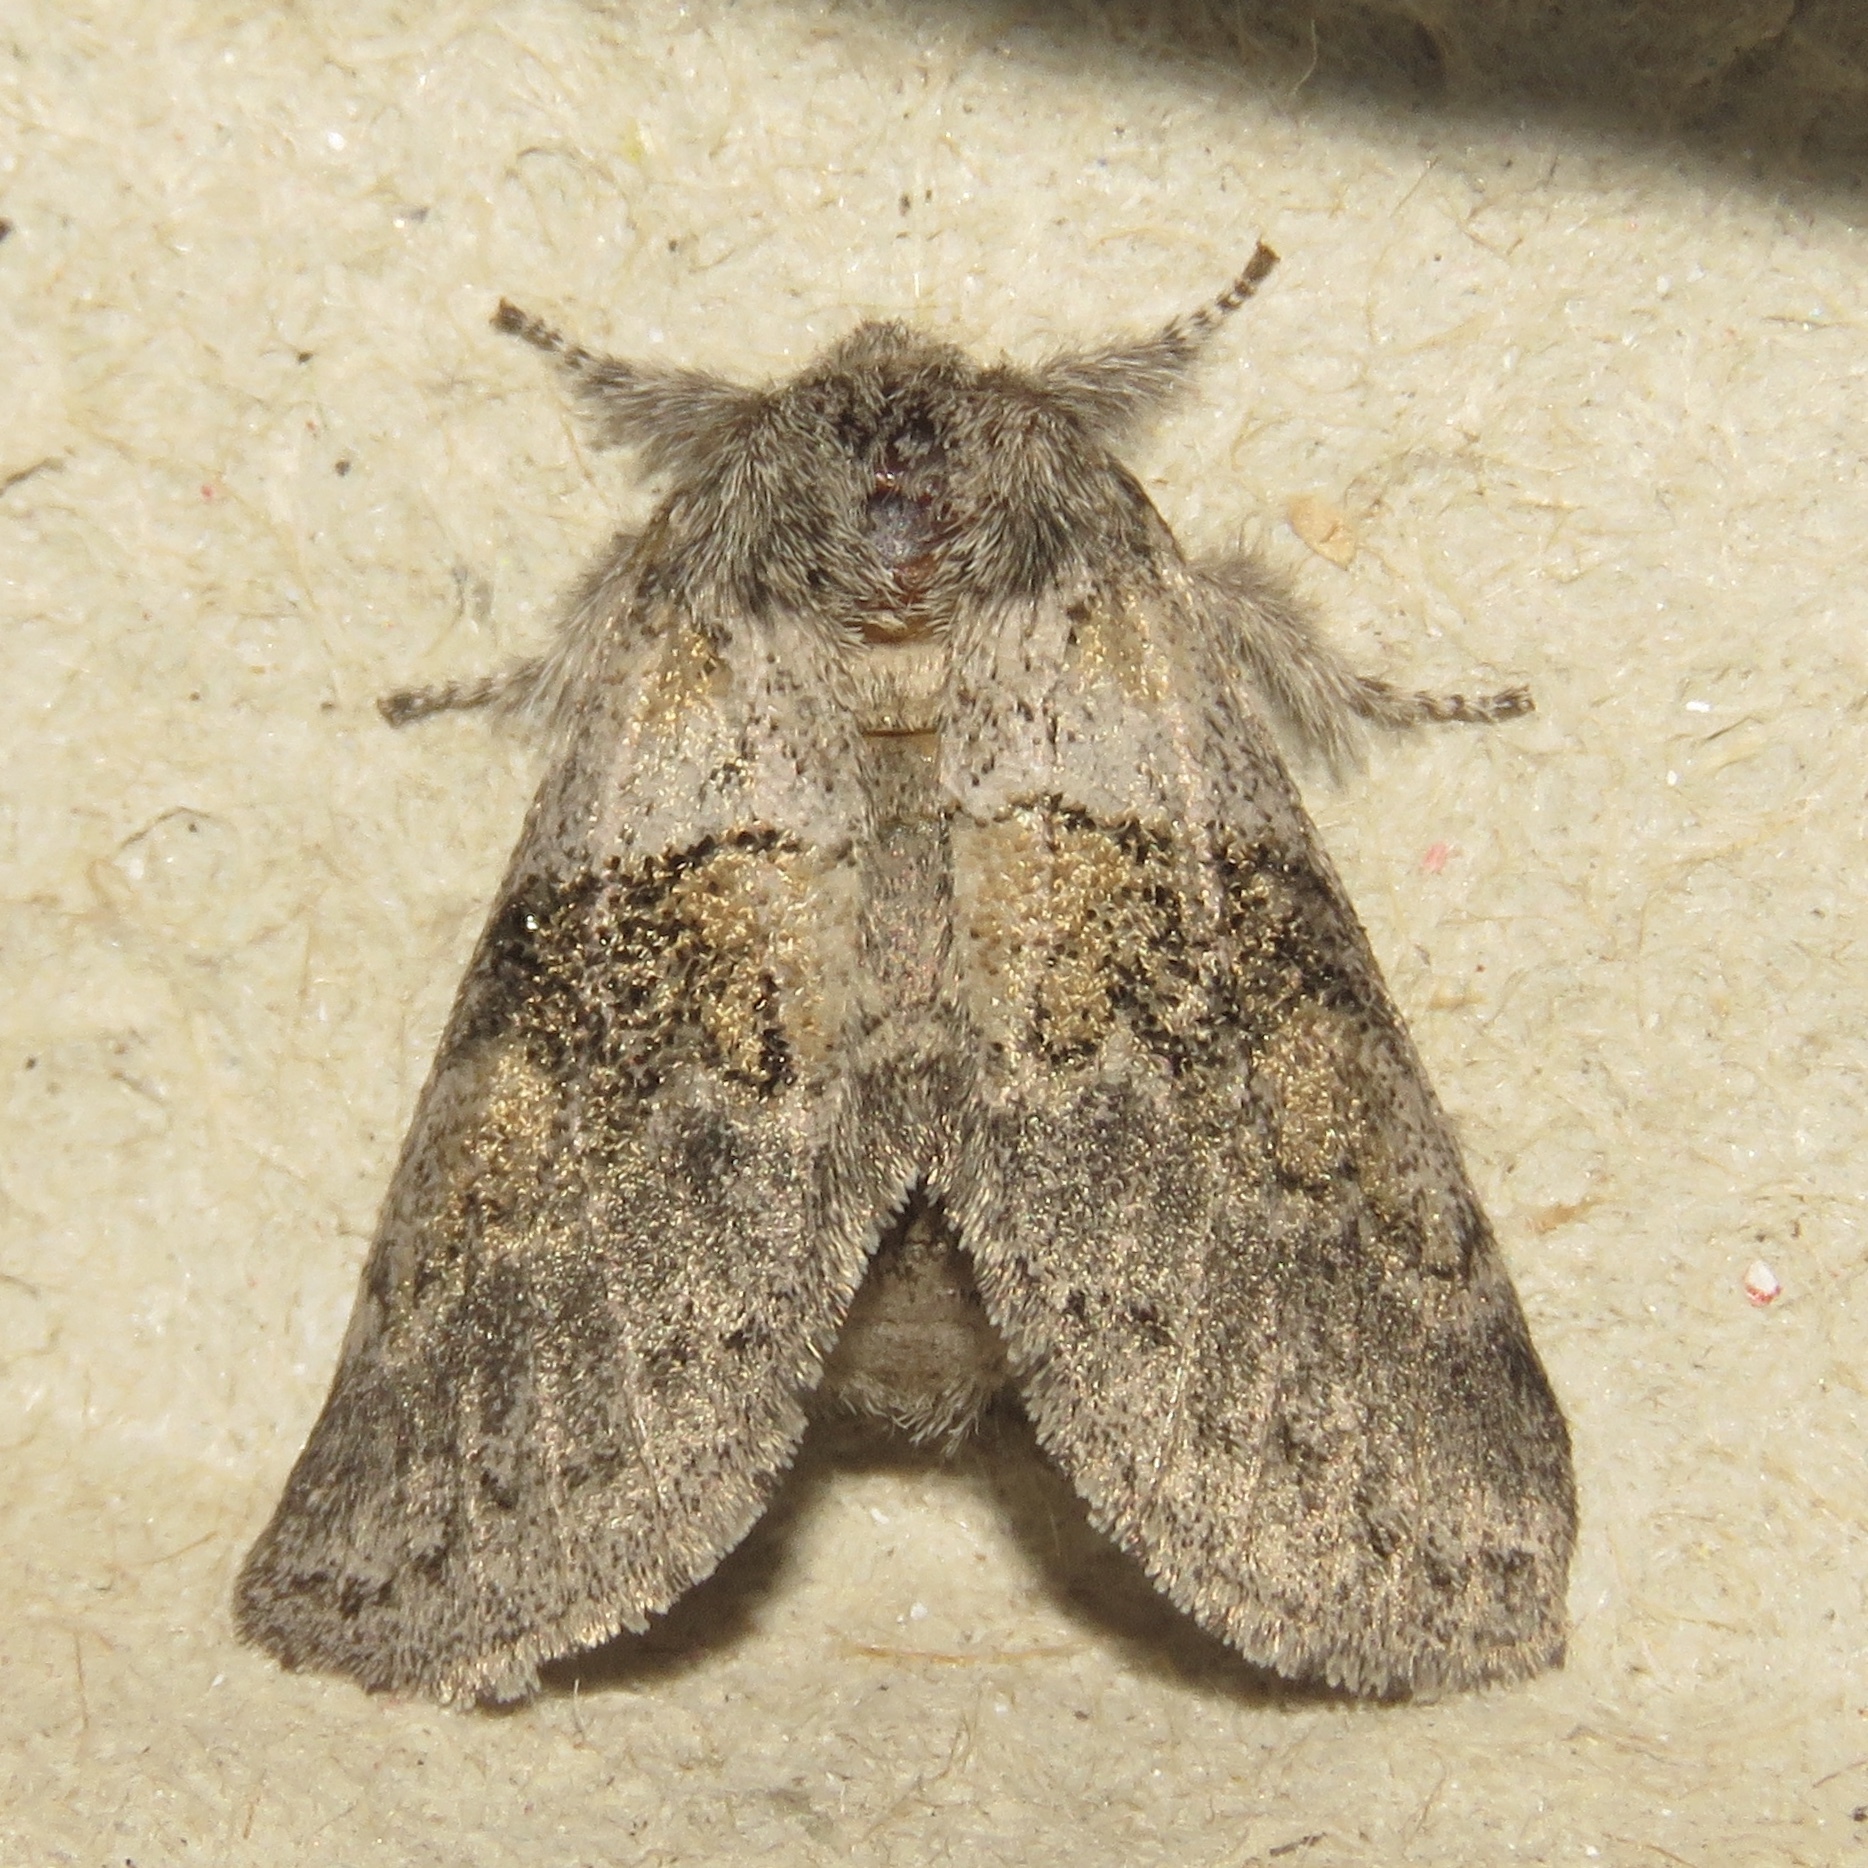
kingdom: Animalia
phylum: Arthropoda
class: Insecta
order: Lepidoptera
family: Notodontidae
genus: Gluphisia
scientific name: Gluphisia septentrionis
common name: Common gluphisia
